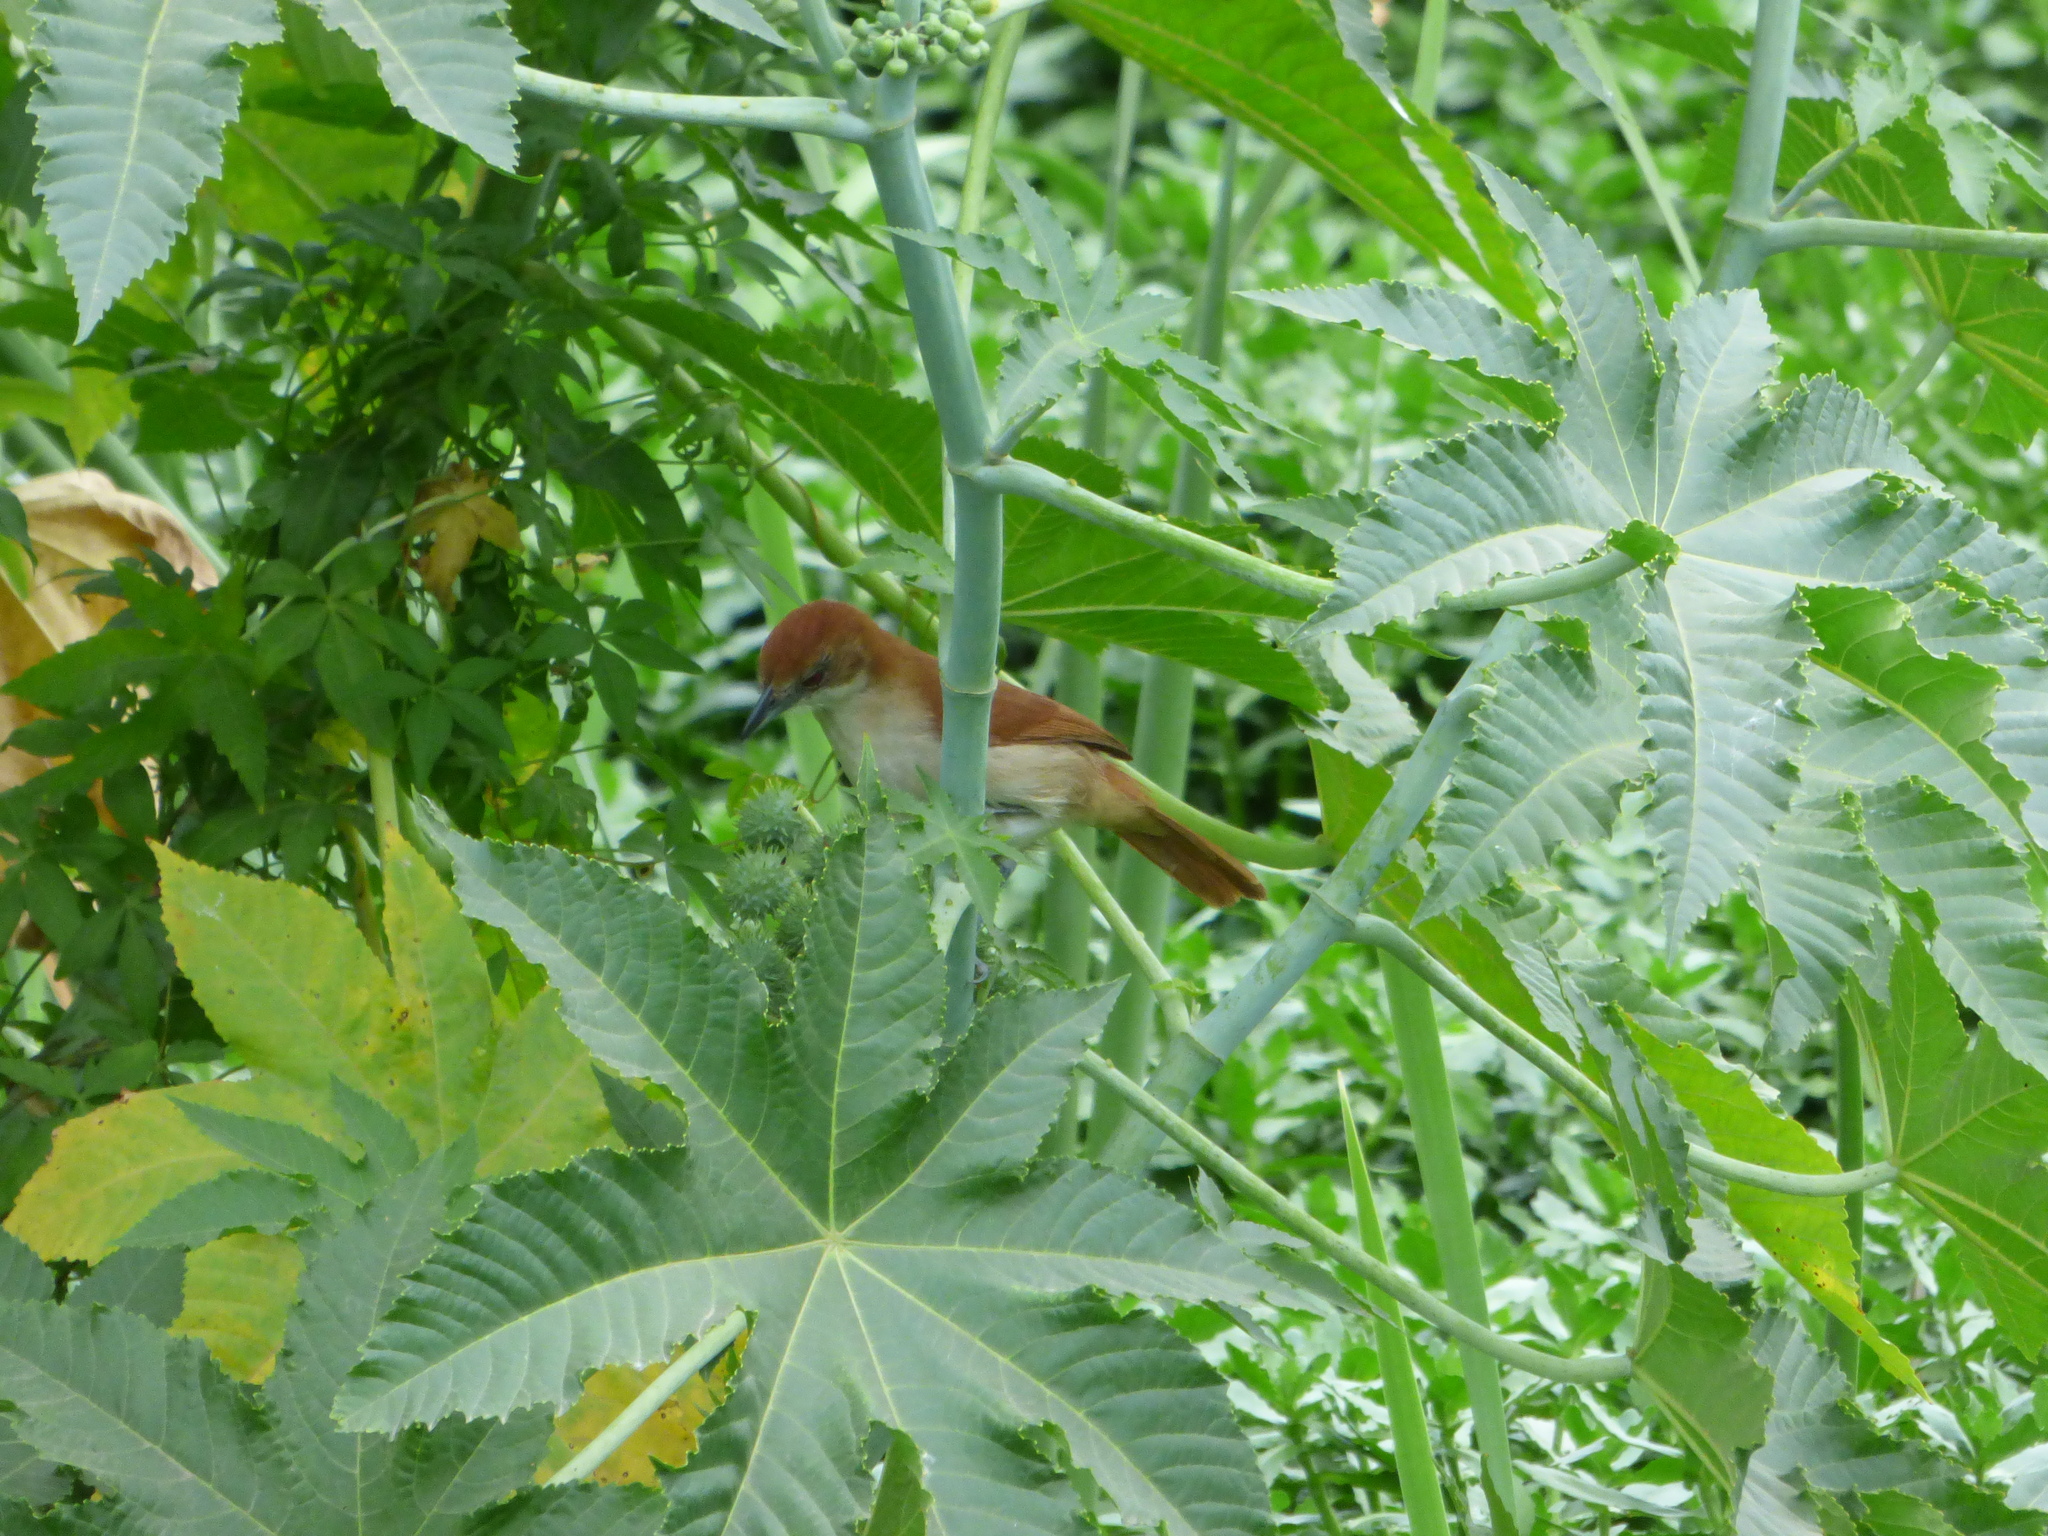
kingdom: Animalia
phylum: Chordata
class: Aves
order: Passeriformes
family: Thamnophilidae
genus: Taraba
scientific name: Taraba major
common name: Great antshrike
